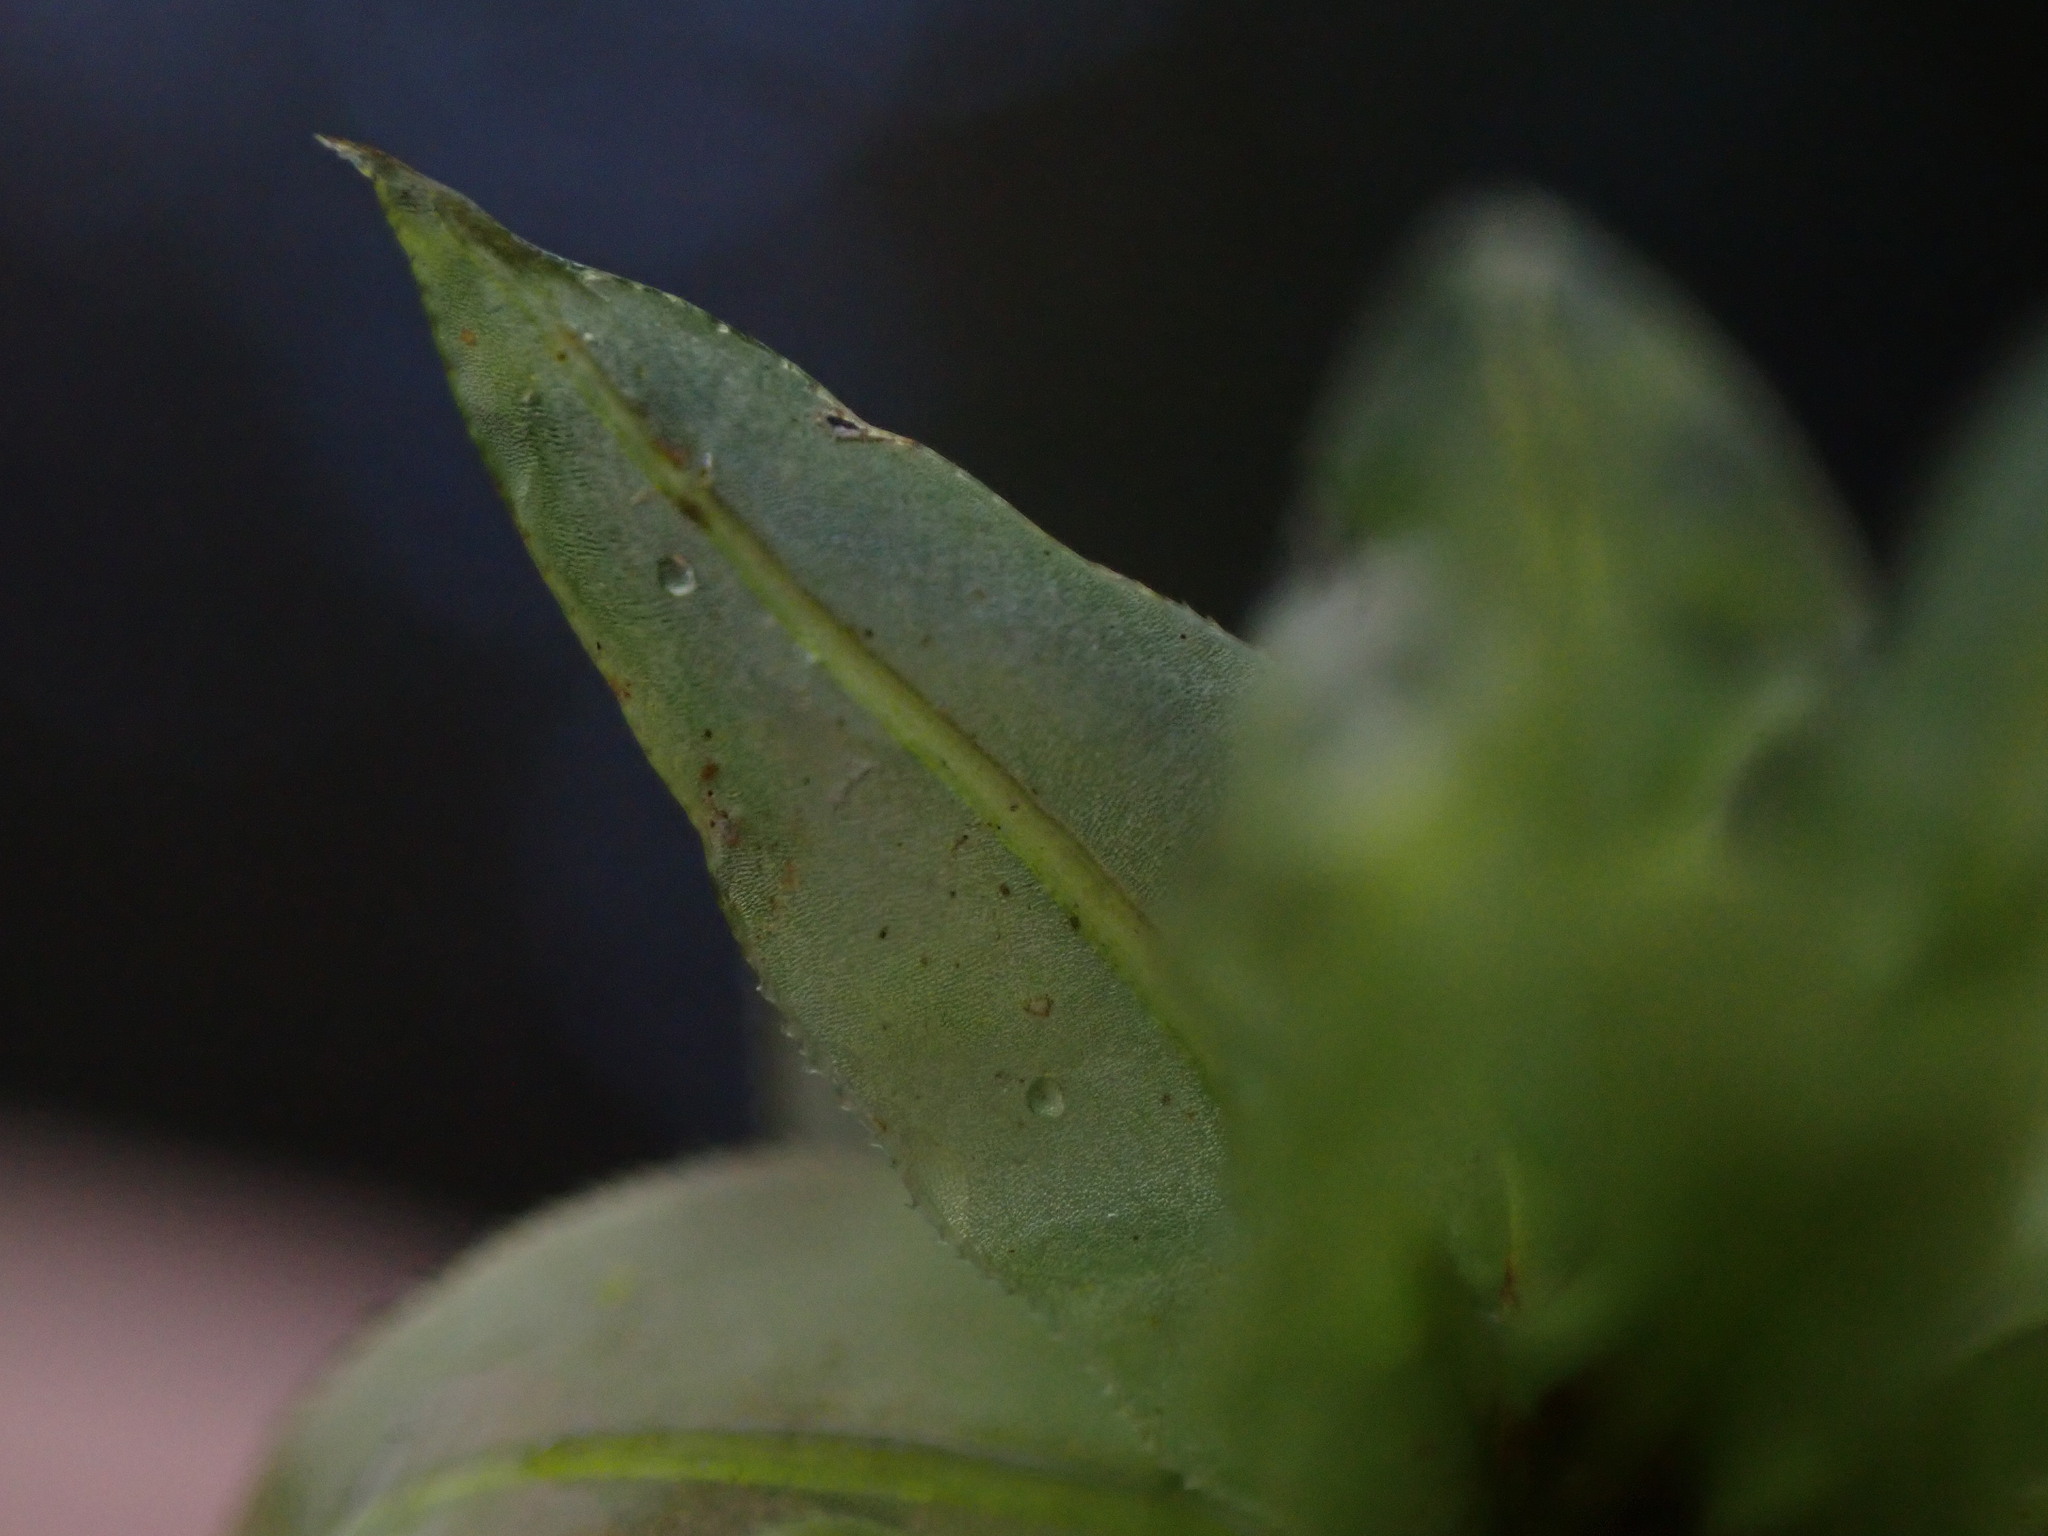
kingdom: Plantae
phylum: Bryophyta
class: Bryopsida
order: Bryales
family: Mniaceae
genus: Plagiomnium
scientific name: Plagiomnium insigne
